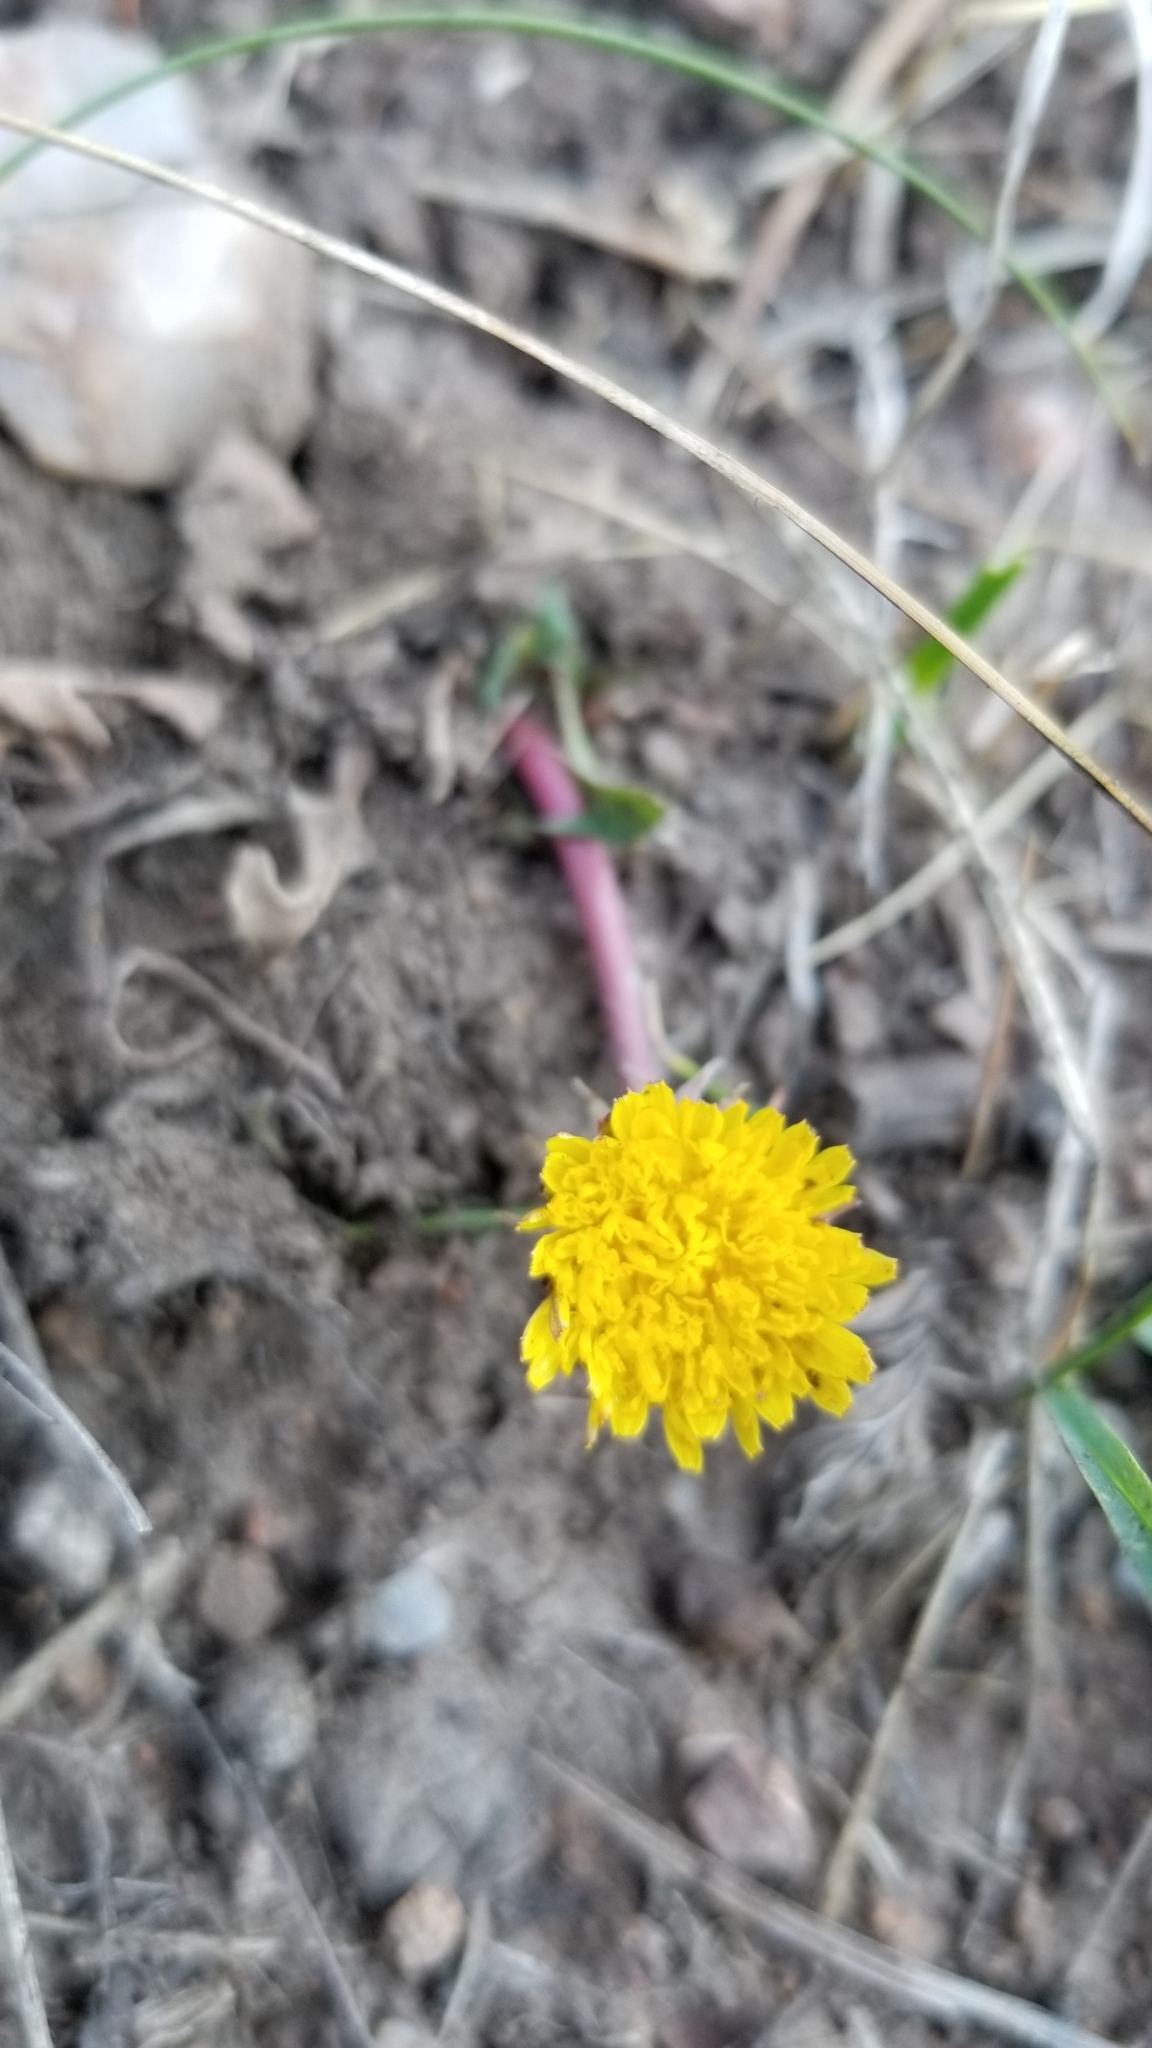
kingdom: Plantae
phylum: Tracheophyta
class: Magnoliopsida
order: Asterales
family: Asteraceae
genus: Taraxacum
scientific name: Taraxacum officinale
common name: Common dandelion
